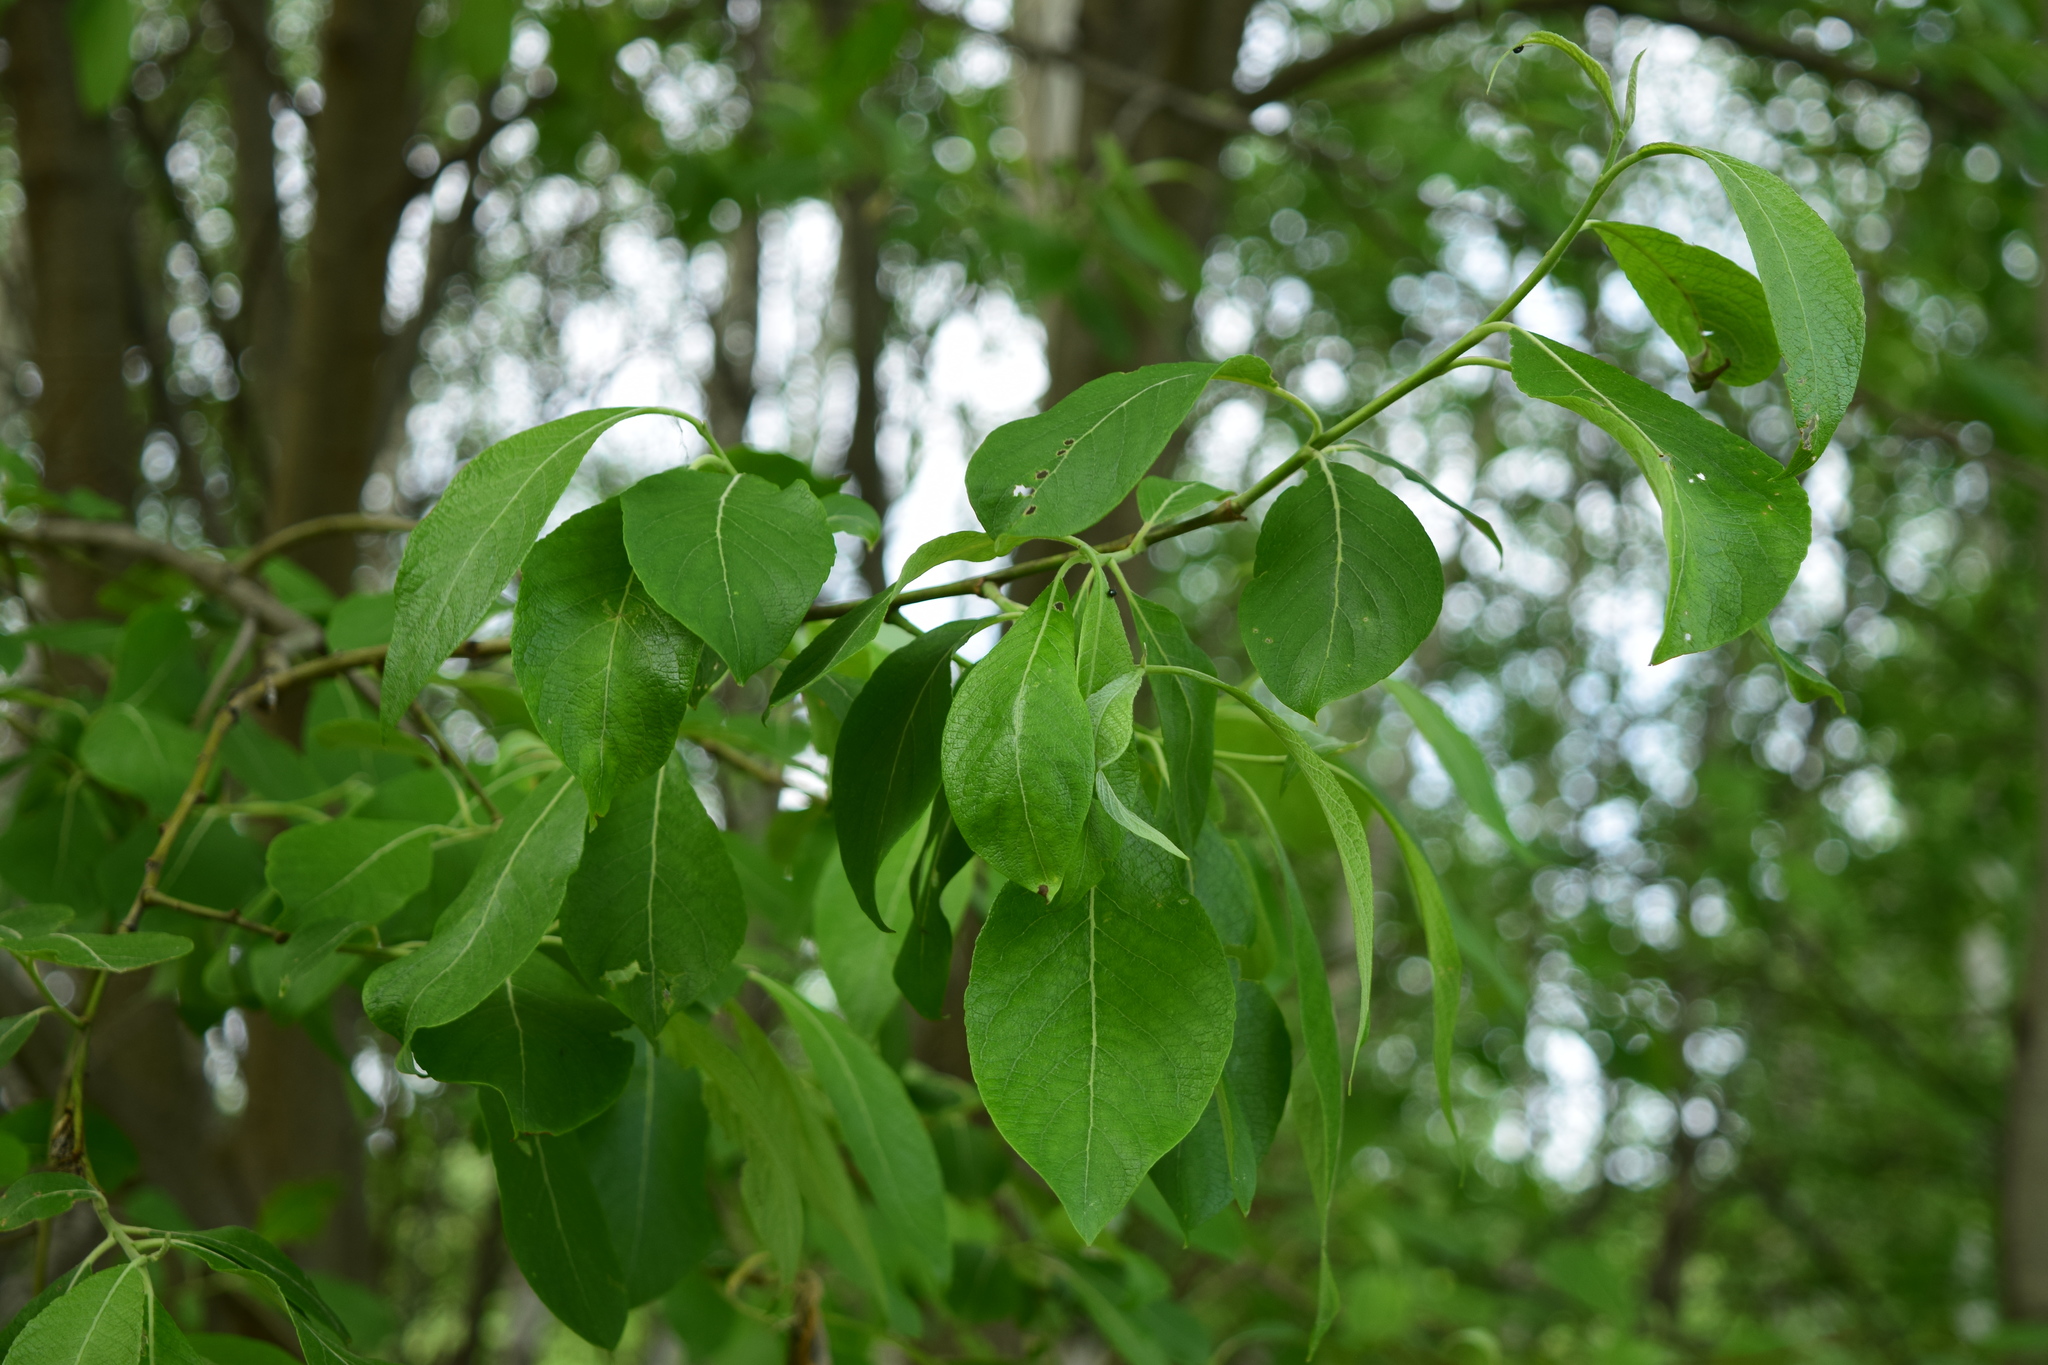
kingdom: Plantae
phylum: Tracheophyta
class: Magnoliopsida
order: Malpighiales
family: Salicaceae
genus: Salix
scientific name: Salix caprea
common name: Goat willow
